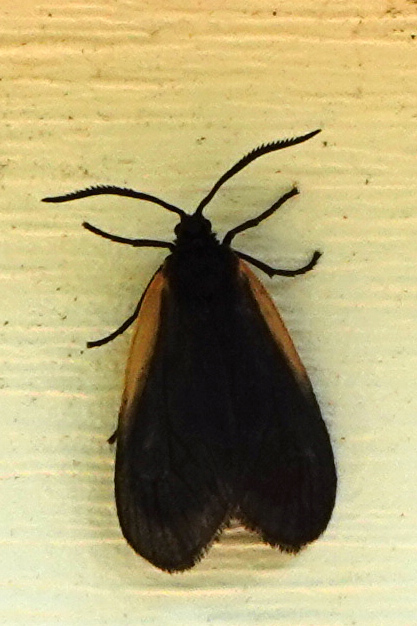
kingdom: Animalia
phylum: Arthropoda
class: Insecta
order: Lepidoptera
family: Zygaenidae
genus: Malthaca
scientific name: Malthaca dimidiata
